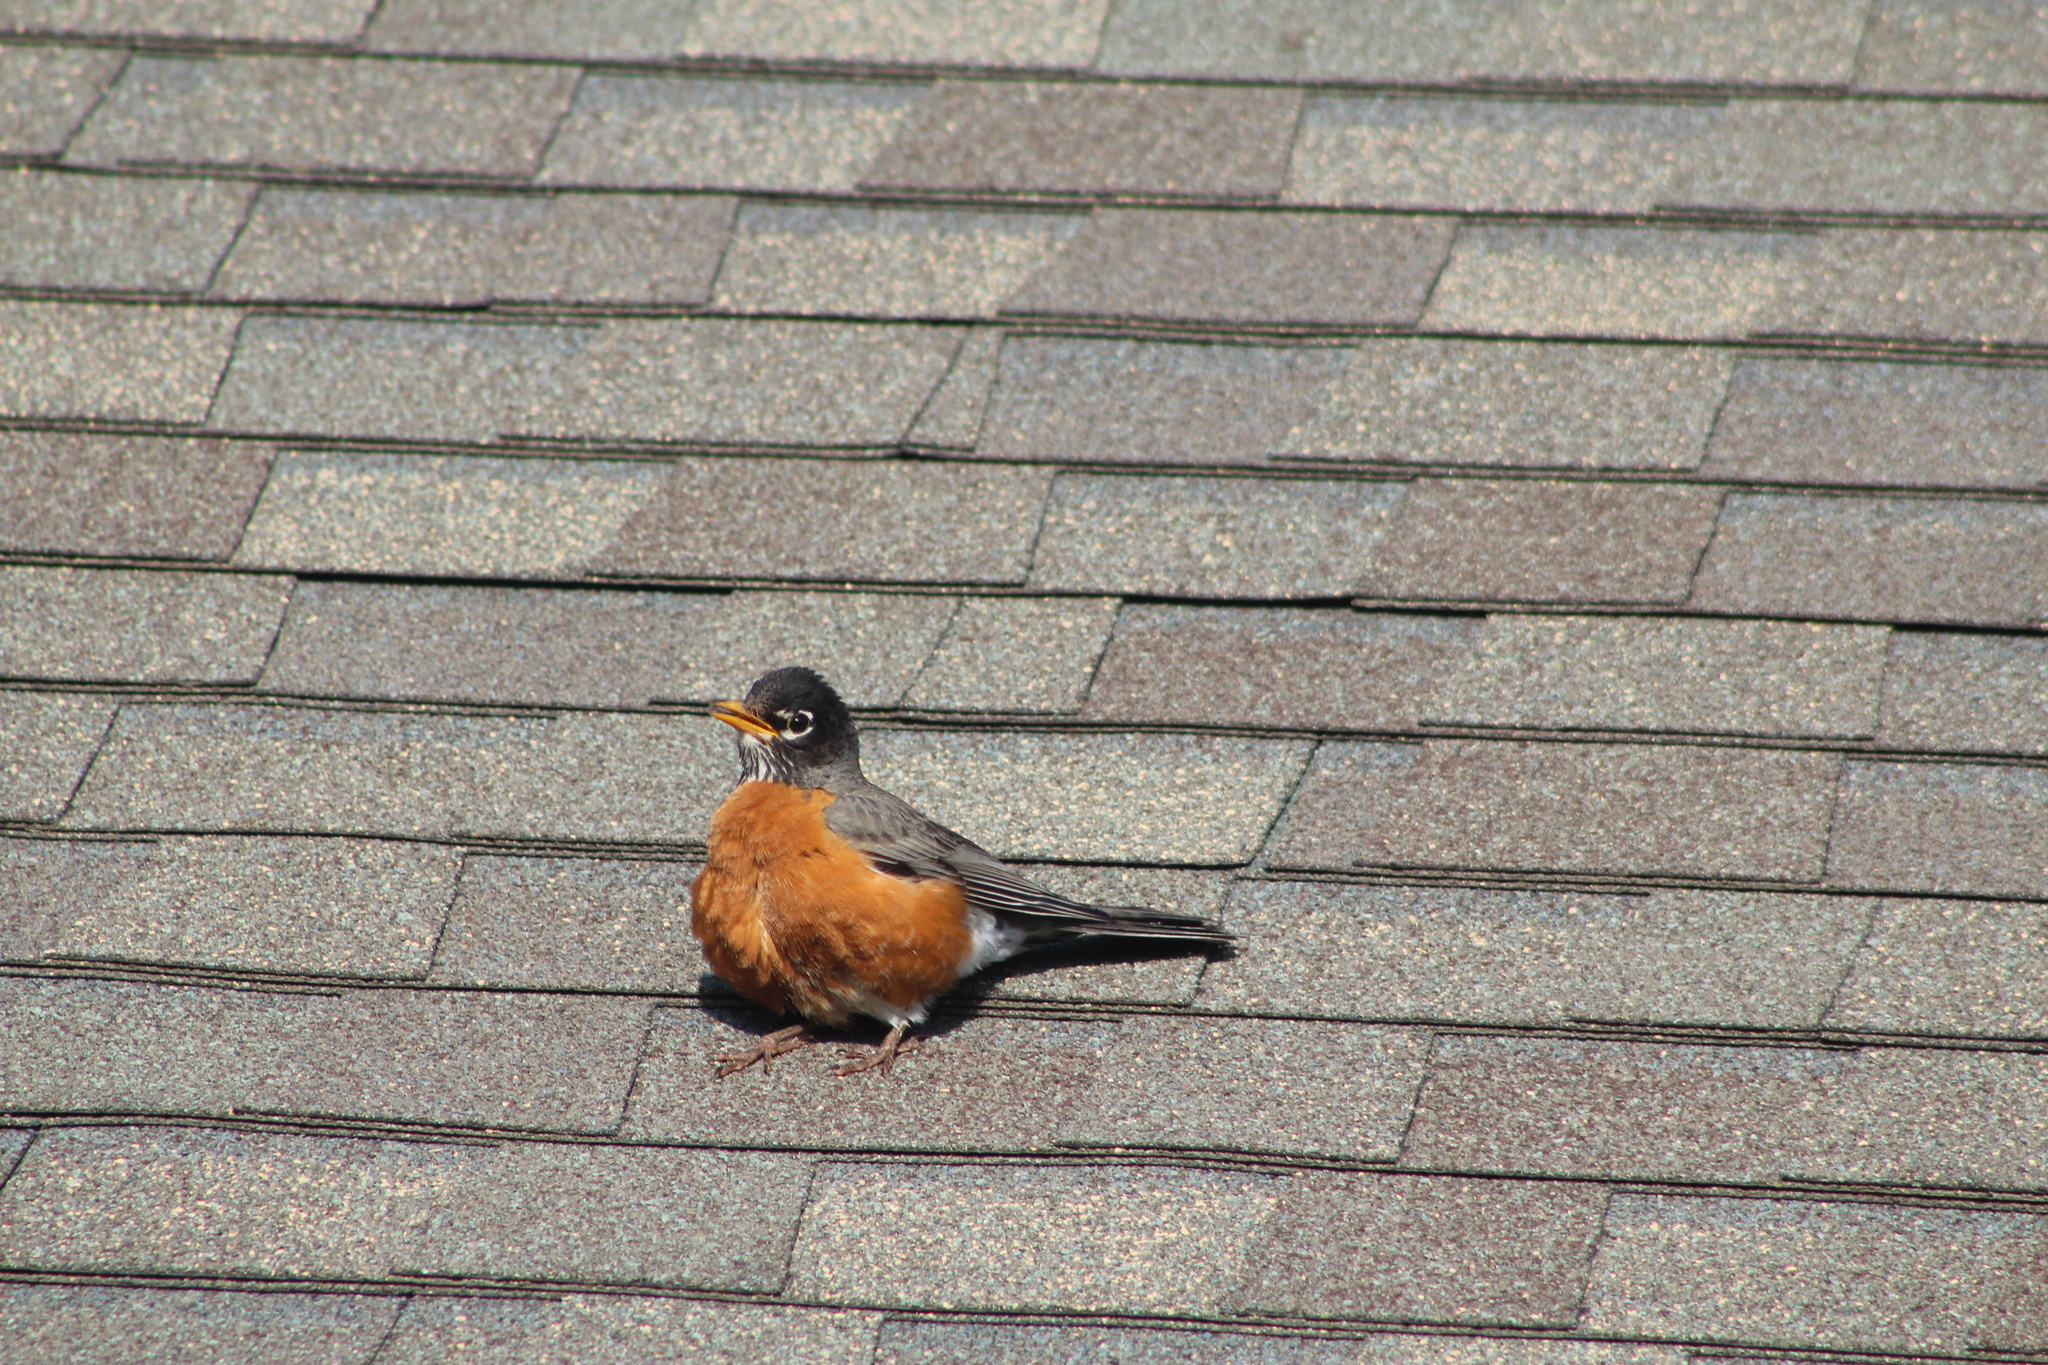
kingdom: Animalia
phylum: Chordata
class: Aves
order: Passeriformes
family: Turdidae
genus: Turdus
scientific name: Turdus migratorius
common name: American robin
